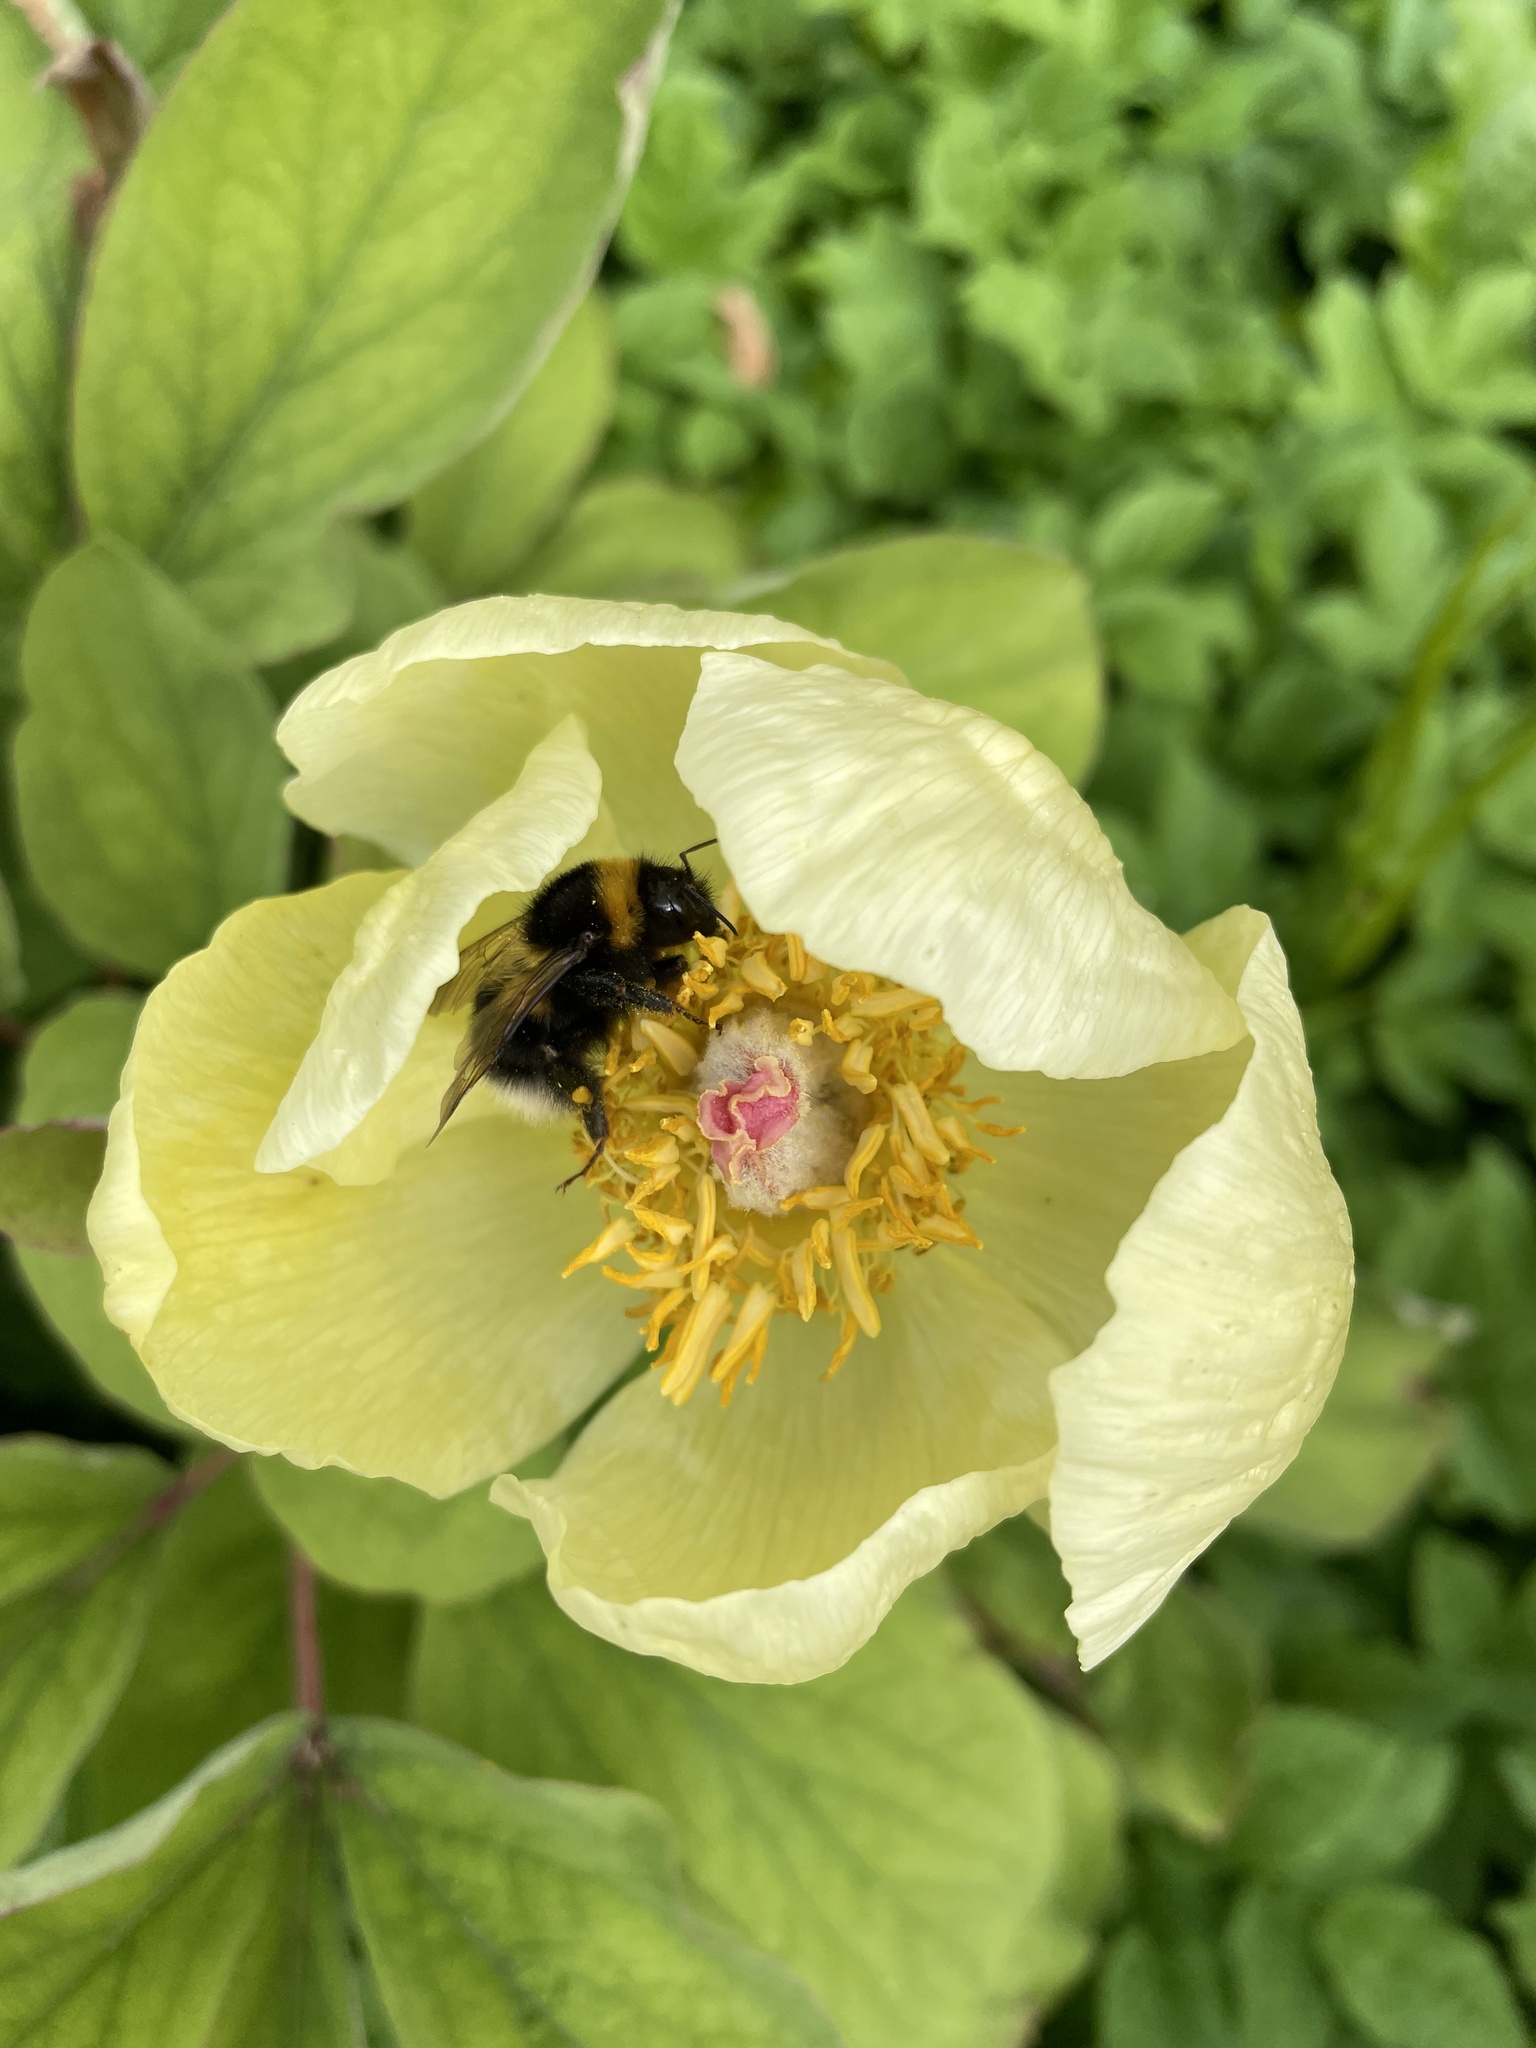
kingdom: Animalia
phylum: Arthropoda
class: Insecta
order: Hymenoptera
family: Apidae
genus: Bombus
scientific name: Bombus hortorum
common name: Garden bumblebee
